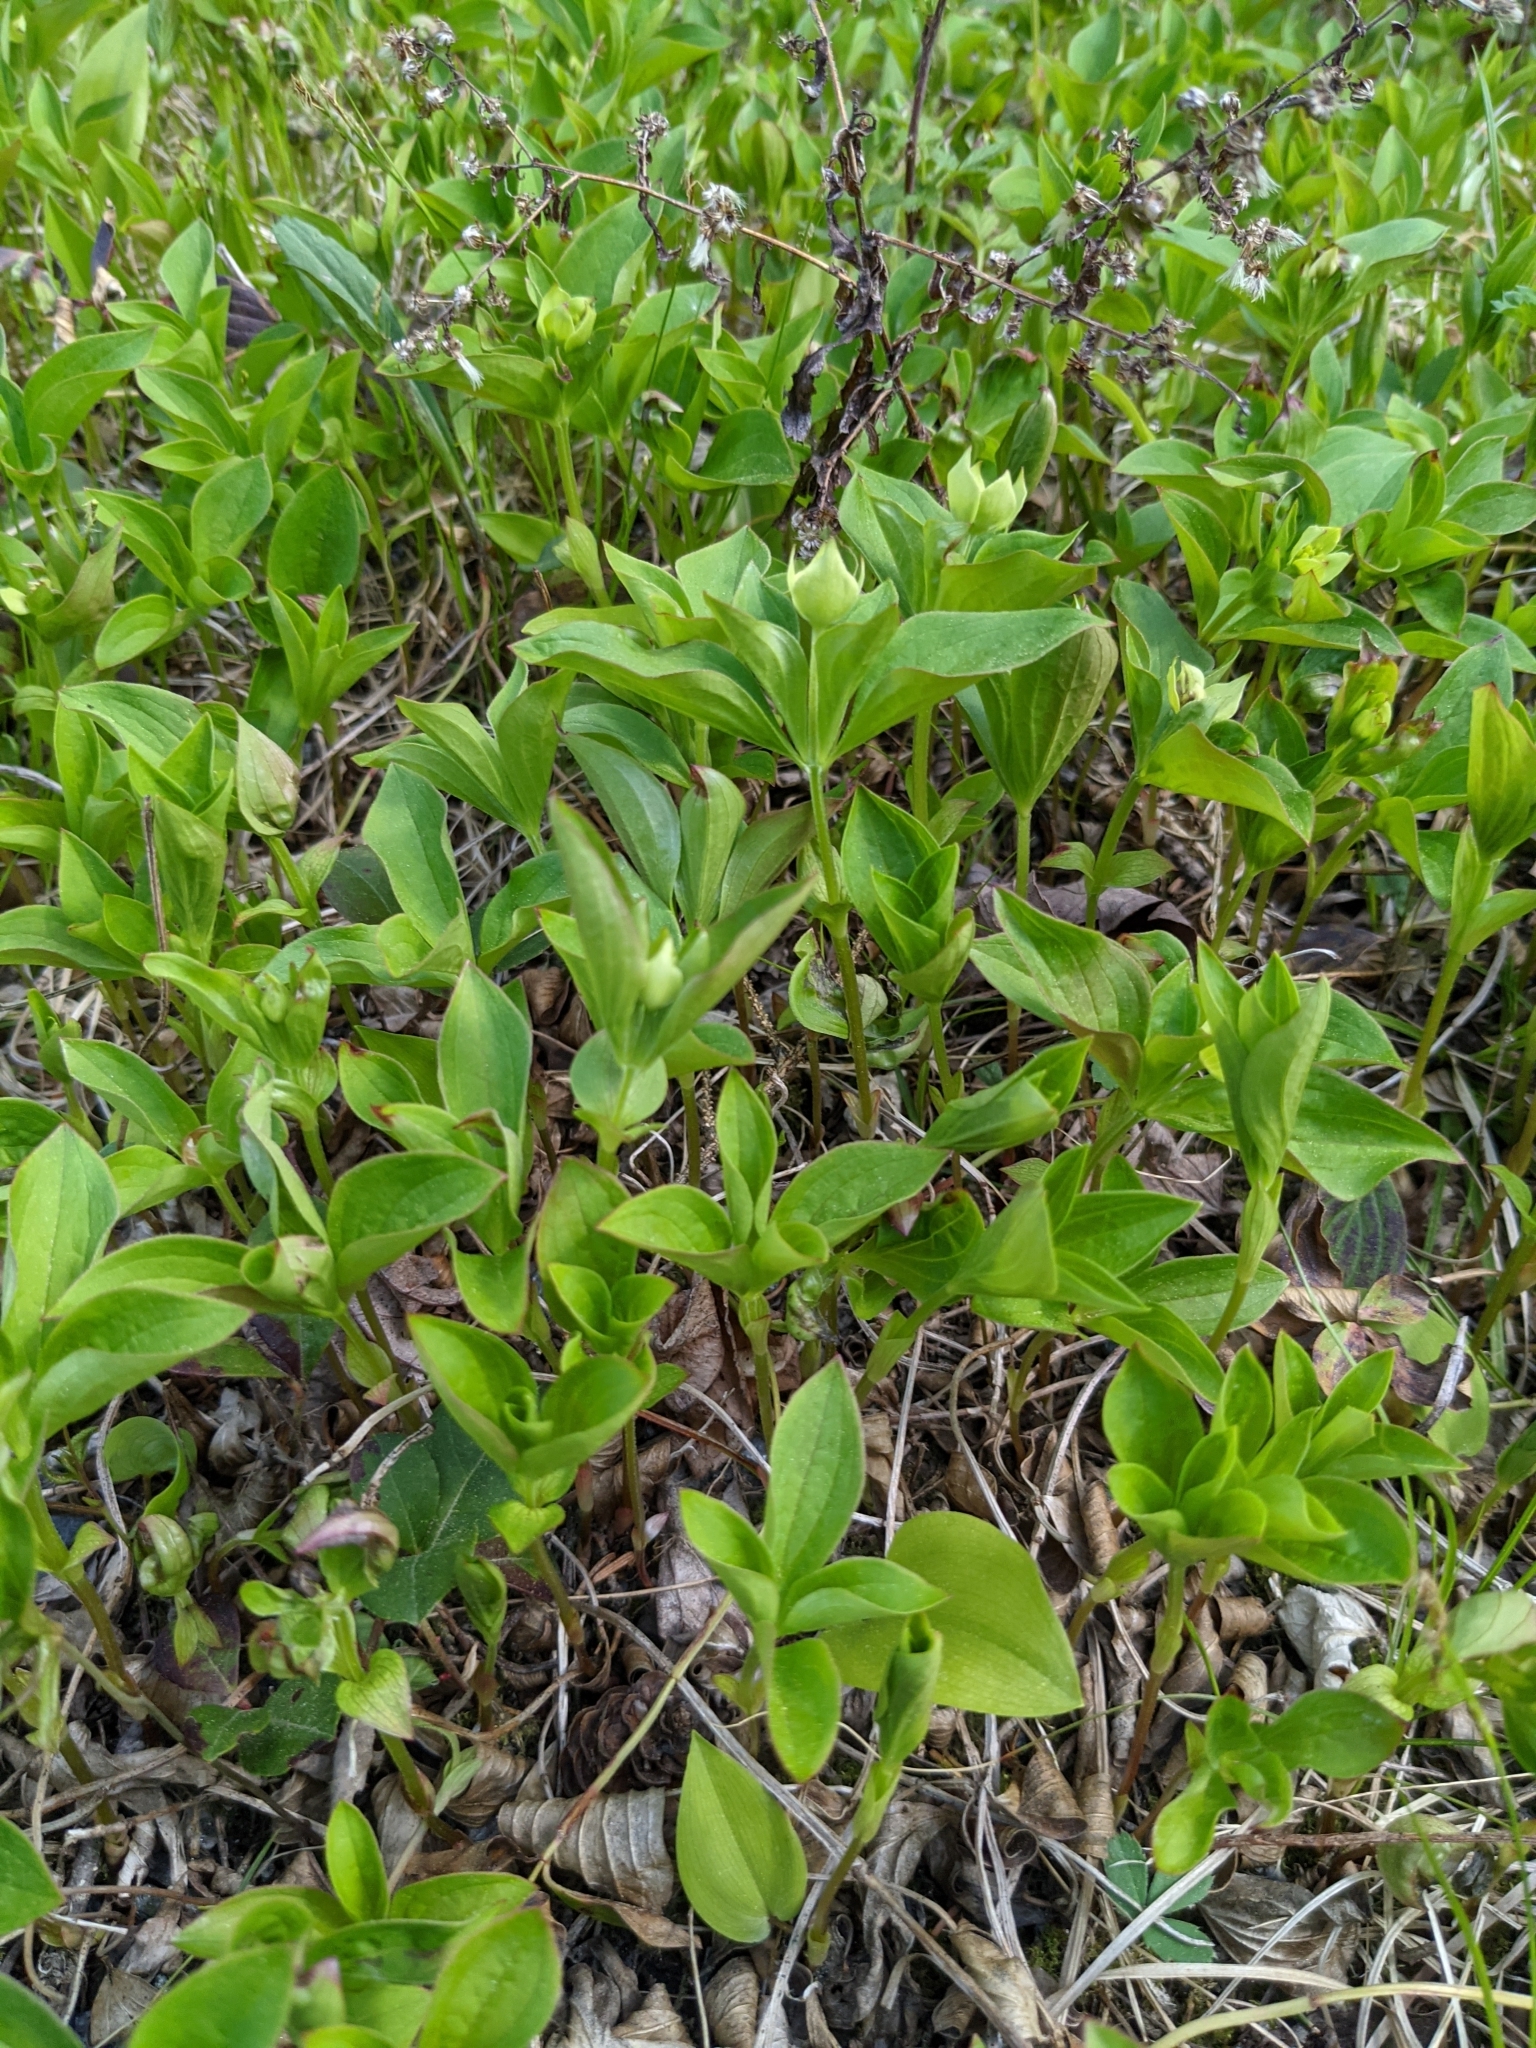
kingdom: Plantae
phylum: Tracheophyta
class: Magnoliopsida
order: Cornales
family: Cornaceae
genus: Cornus
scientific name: Cornus canadensis
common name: Creeping dogwood
